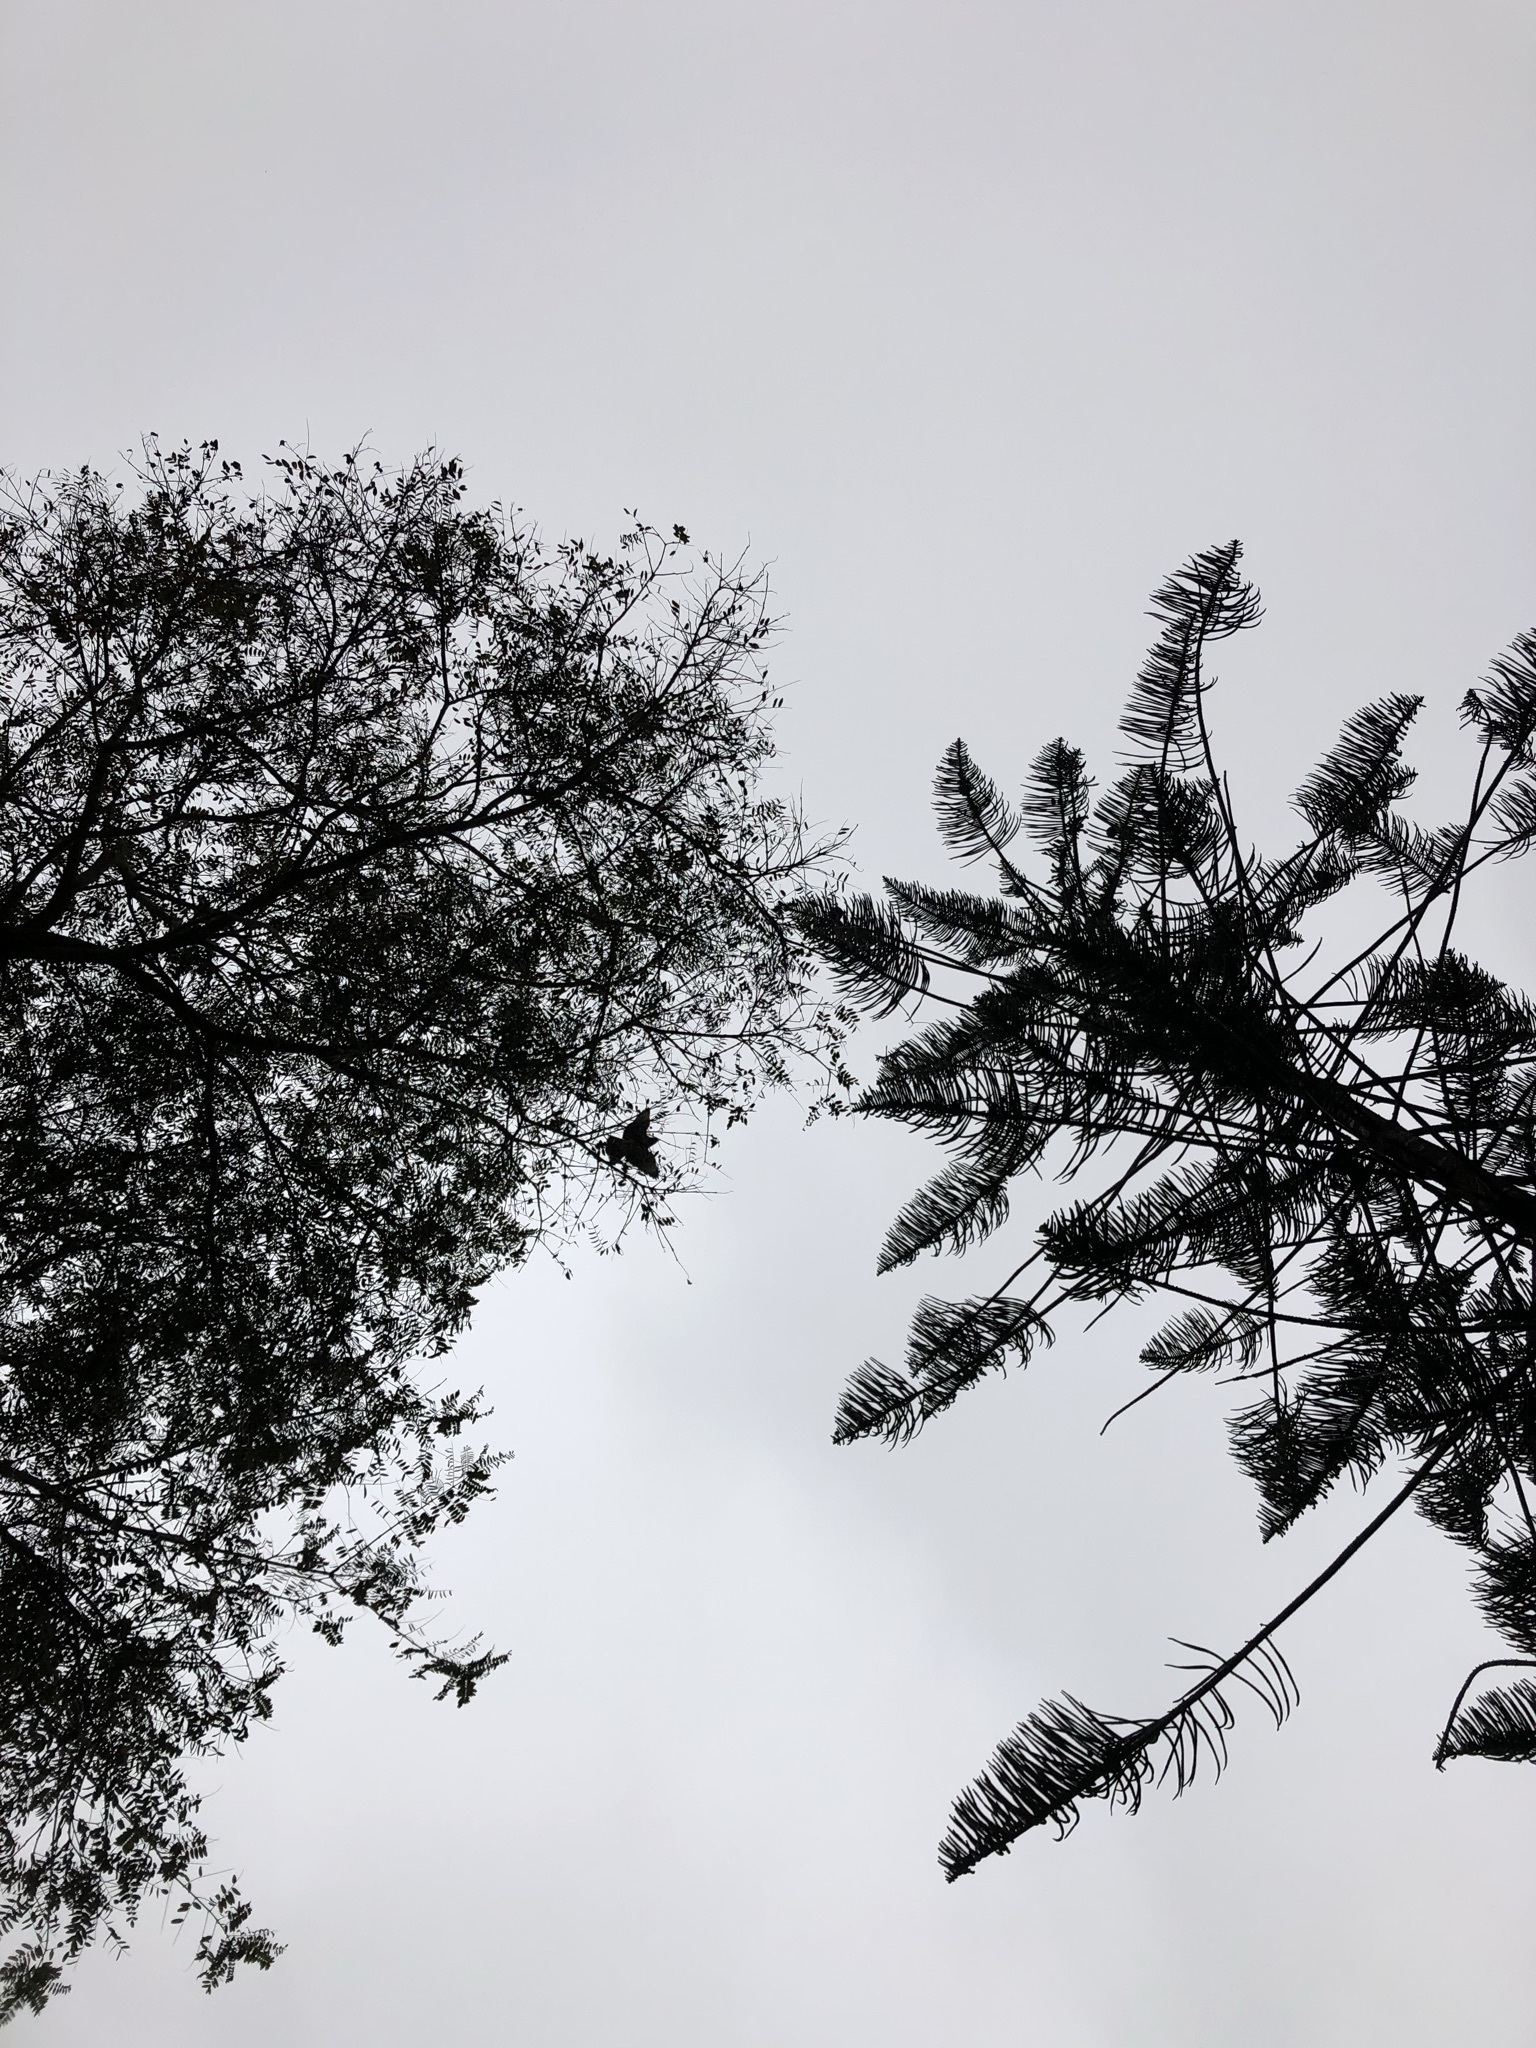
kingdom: Animalia
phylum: Chordata
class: Aves
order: Accipitriformes
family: Accipitridae
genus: Parabuteo
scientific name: Parabuteo unicinctus
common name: Harris's hawk
